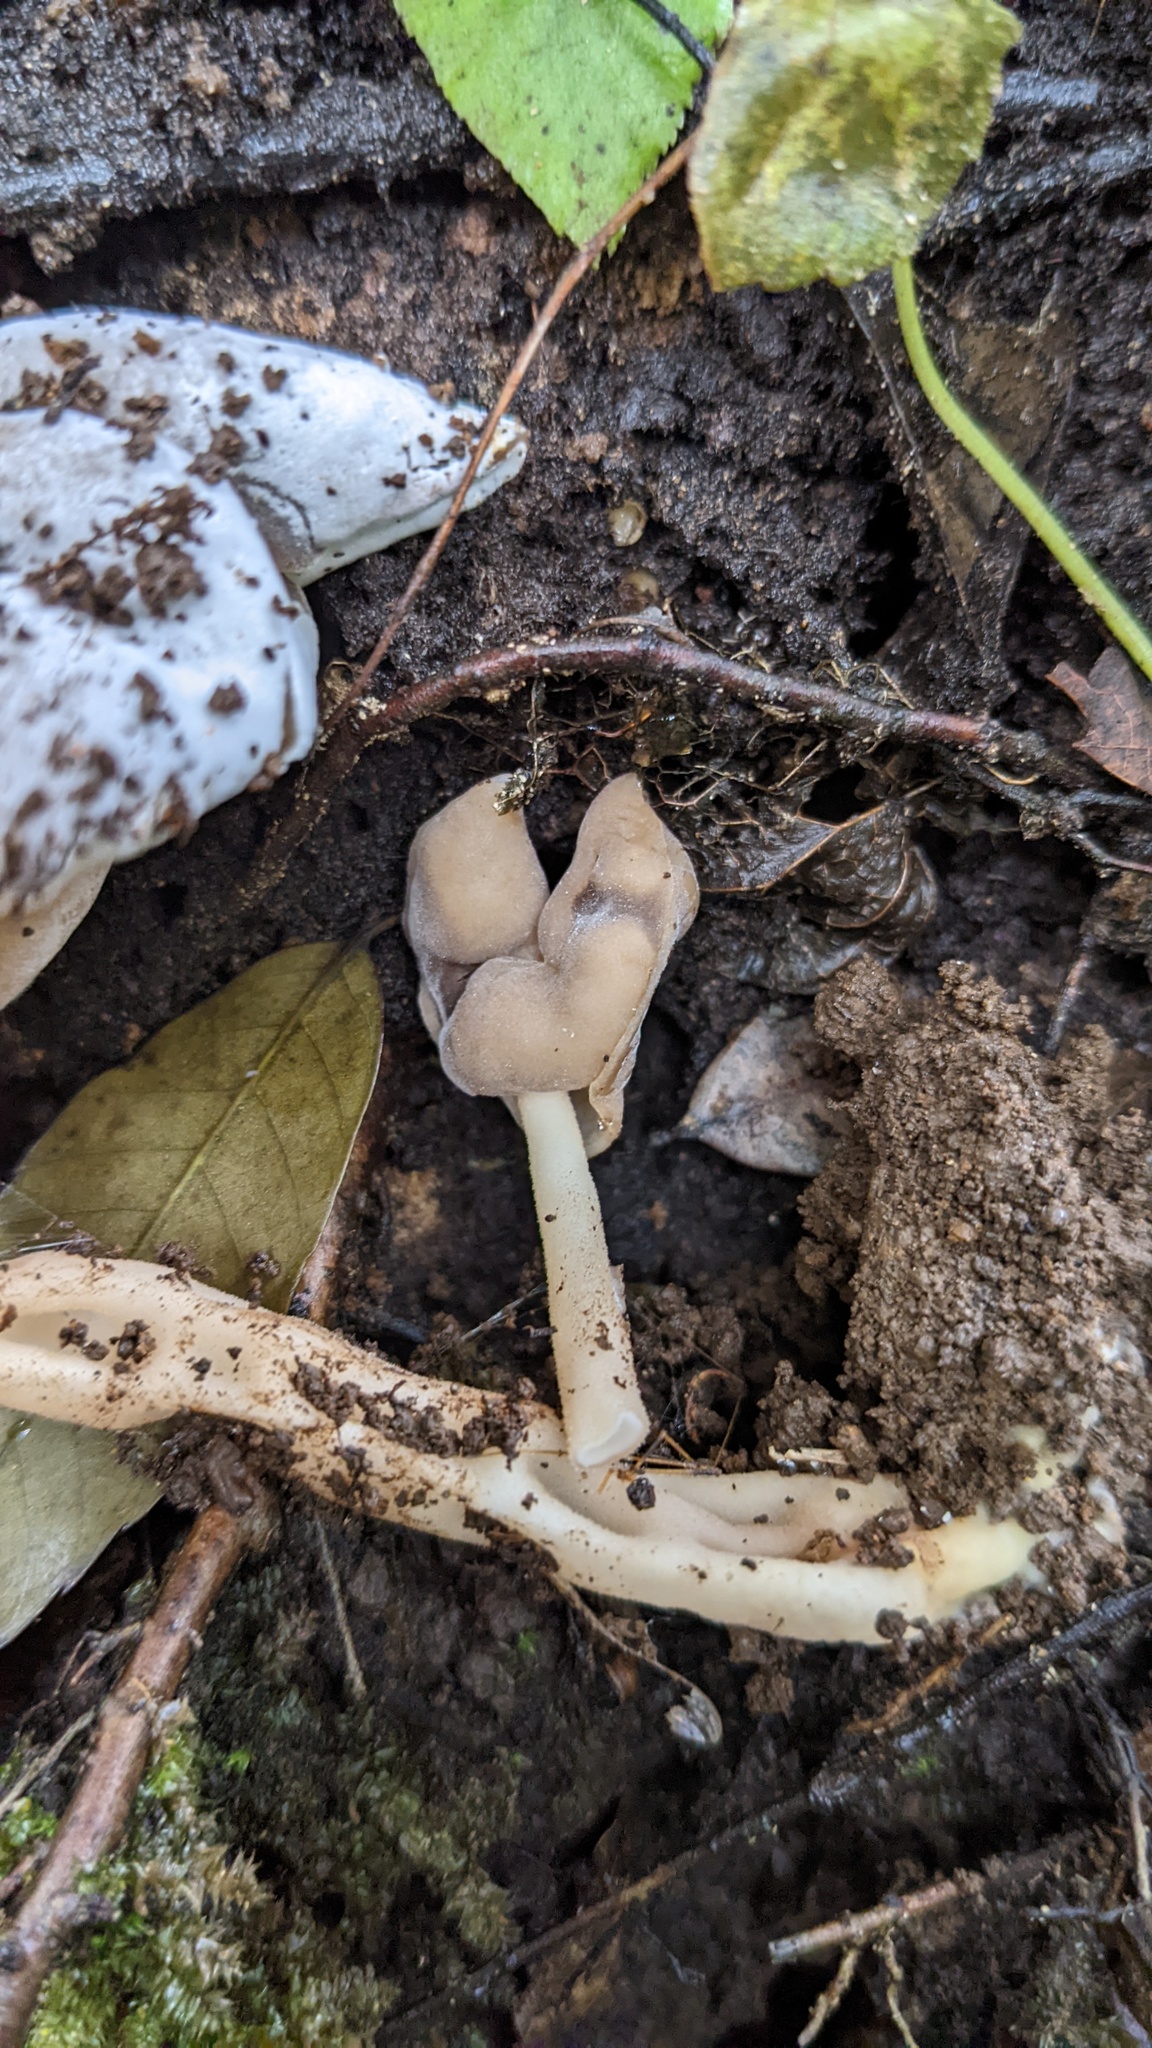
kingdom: Fungi
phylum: Ascomycota
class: Pezizomycetes
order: Pezizales
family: Helvellaceae
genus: Helvella
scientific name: Helvella elastica
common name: Elastic saddle
